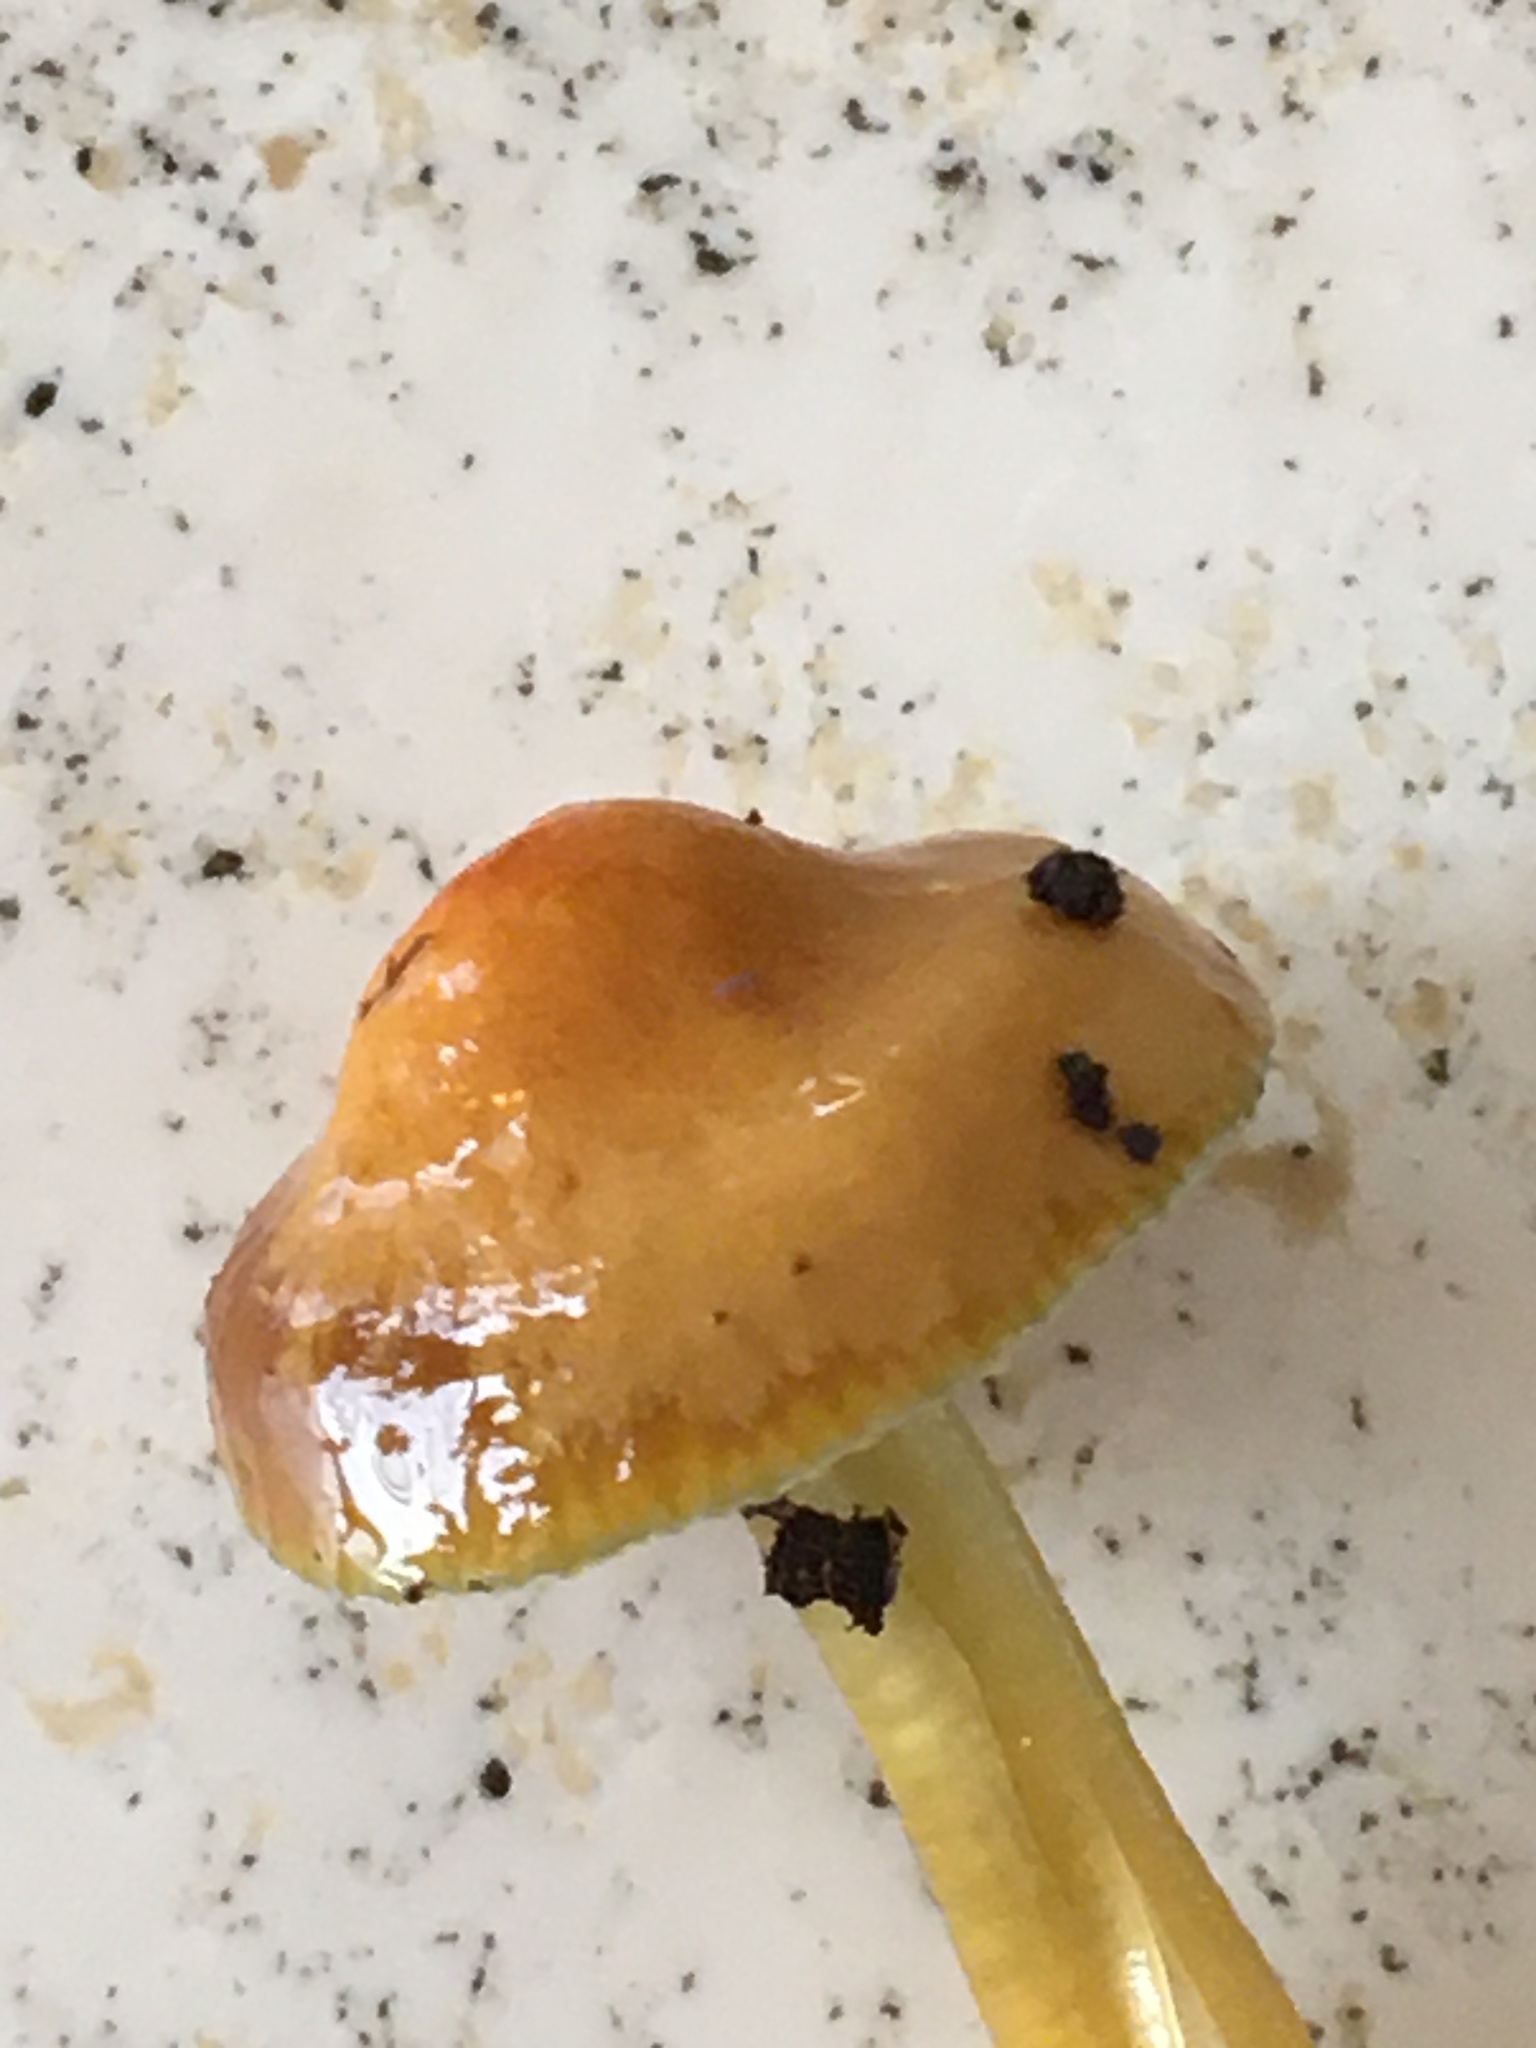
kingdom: Fungi
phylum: Basidiomycota
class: Agaricomycetes
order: Agaricales
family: Hygrophoraceae
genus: Gliophorus
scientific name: Gliophorus psittacinus
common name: Parrot wax-cap
